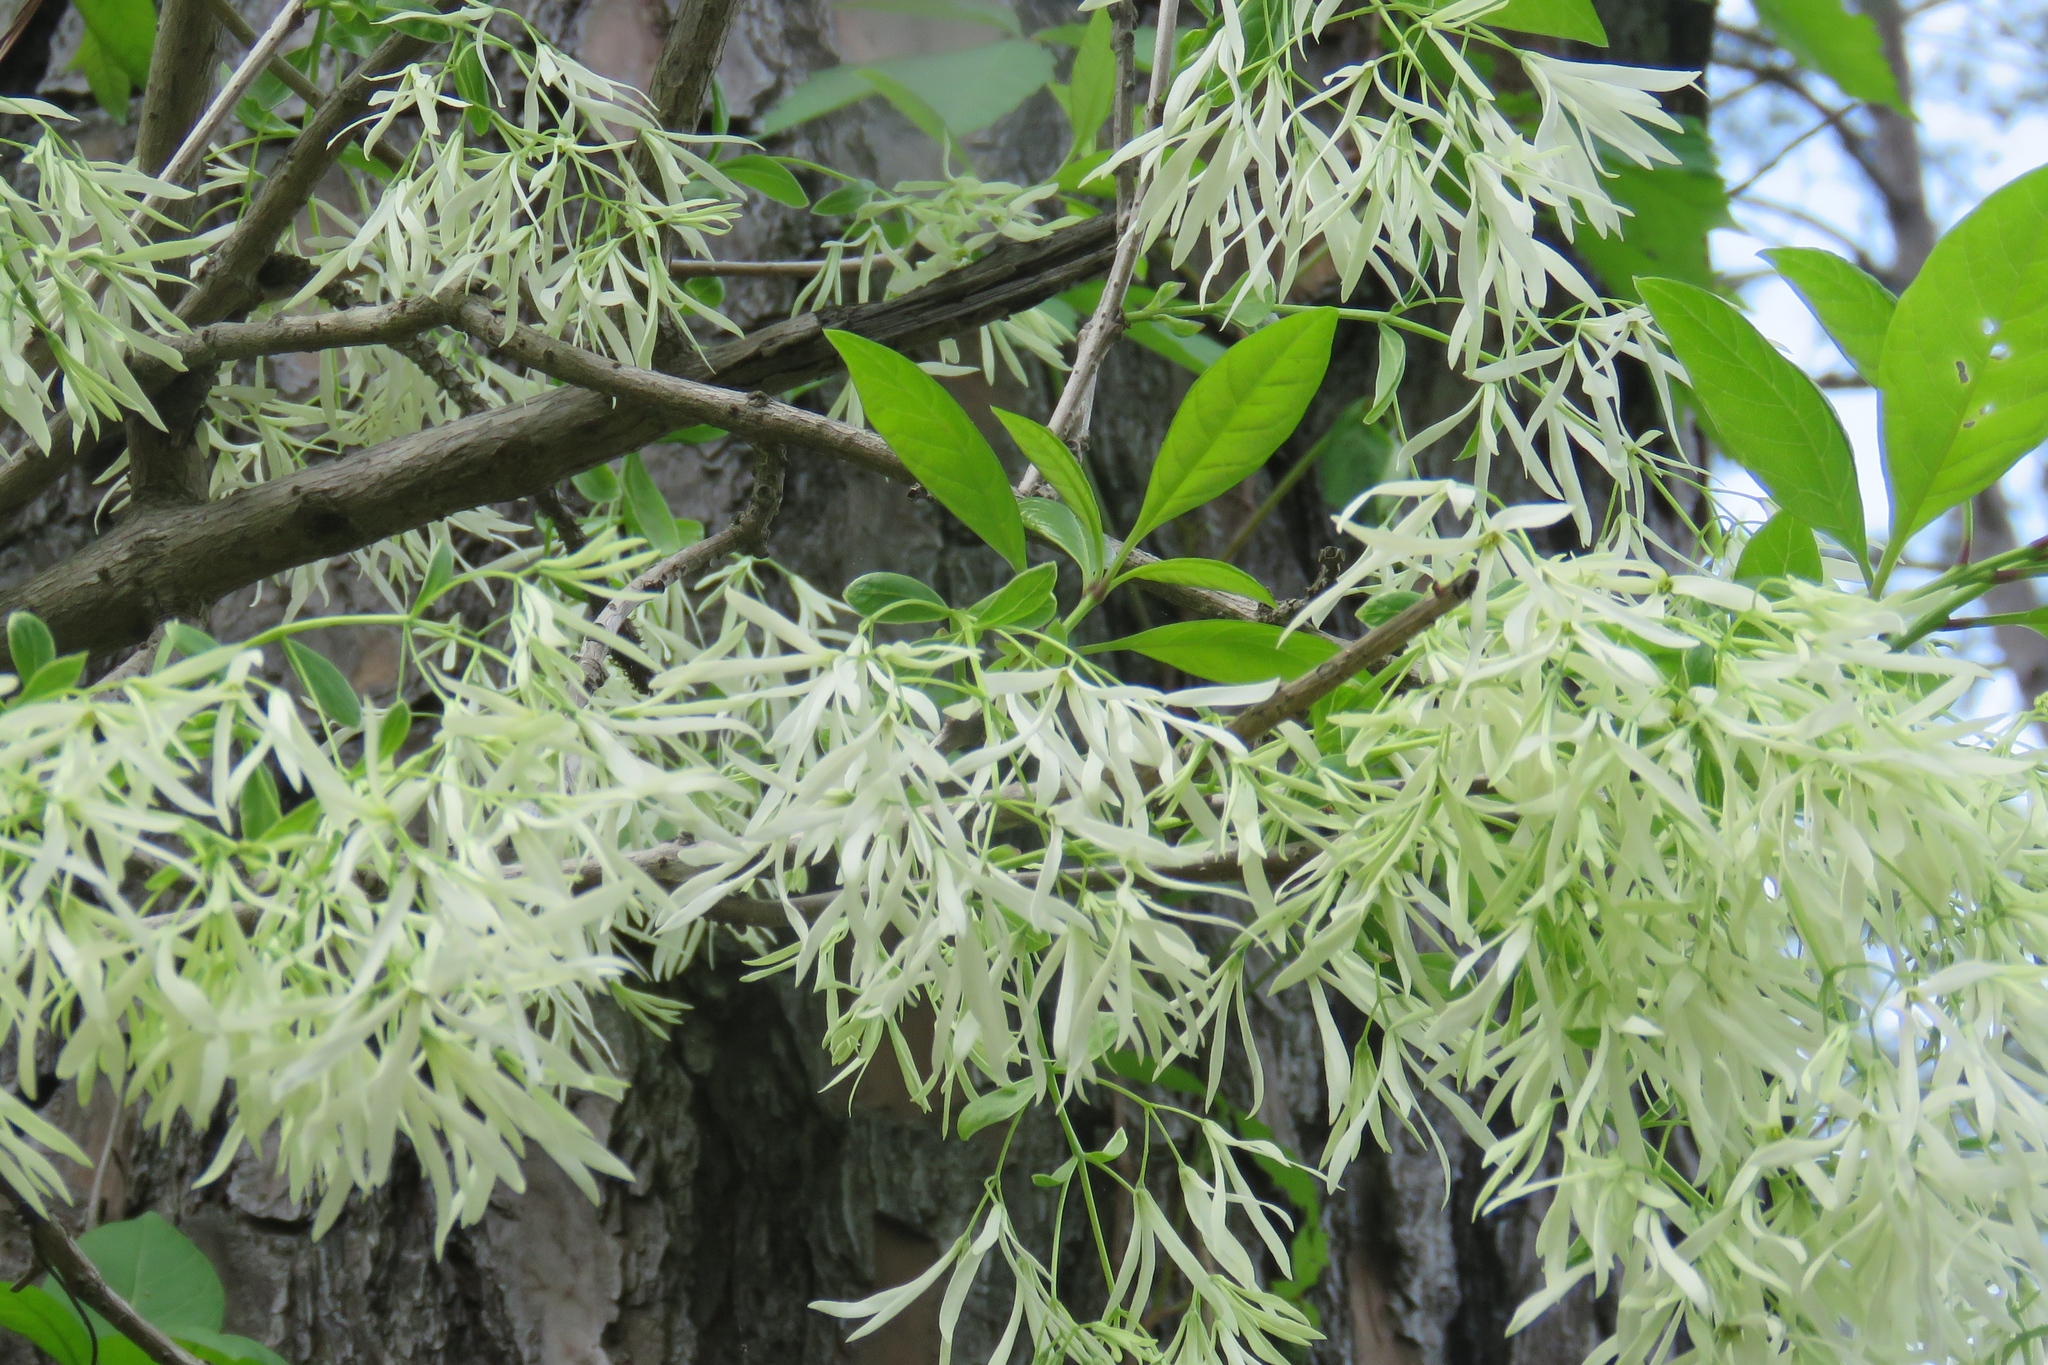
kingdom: Plantae
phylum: Tracheophyta
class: Magnoliopsida
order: Lamiales
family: Oleaceae
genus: Chionanthus
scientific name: Chionanthus virginicus
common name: American fringetree
